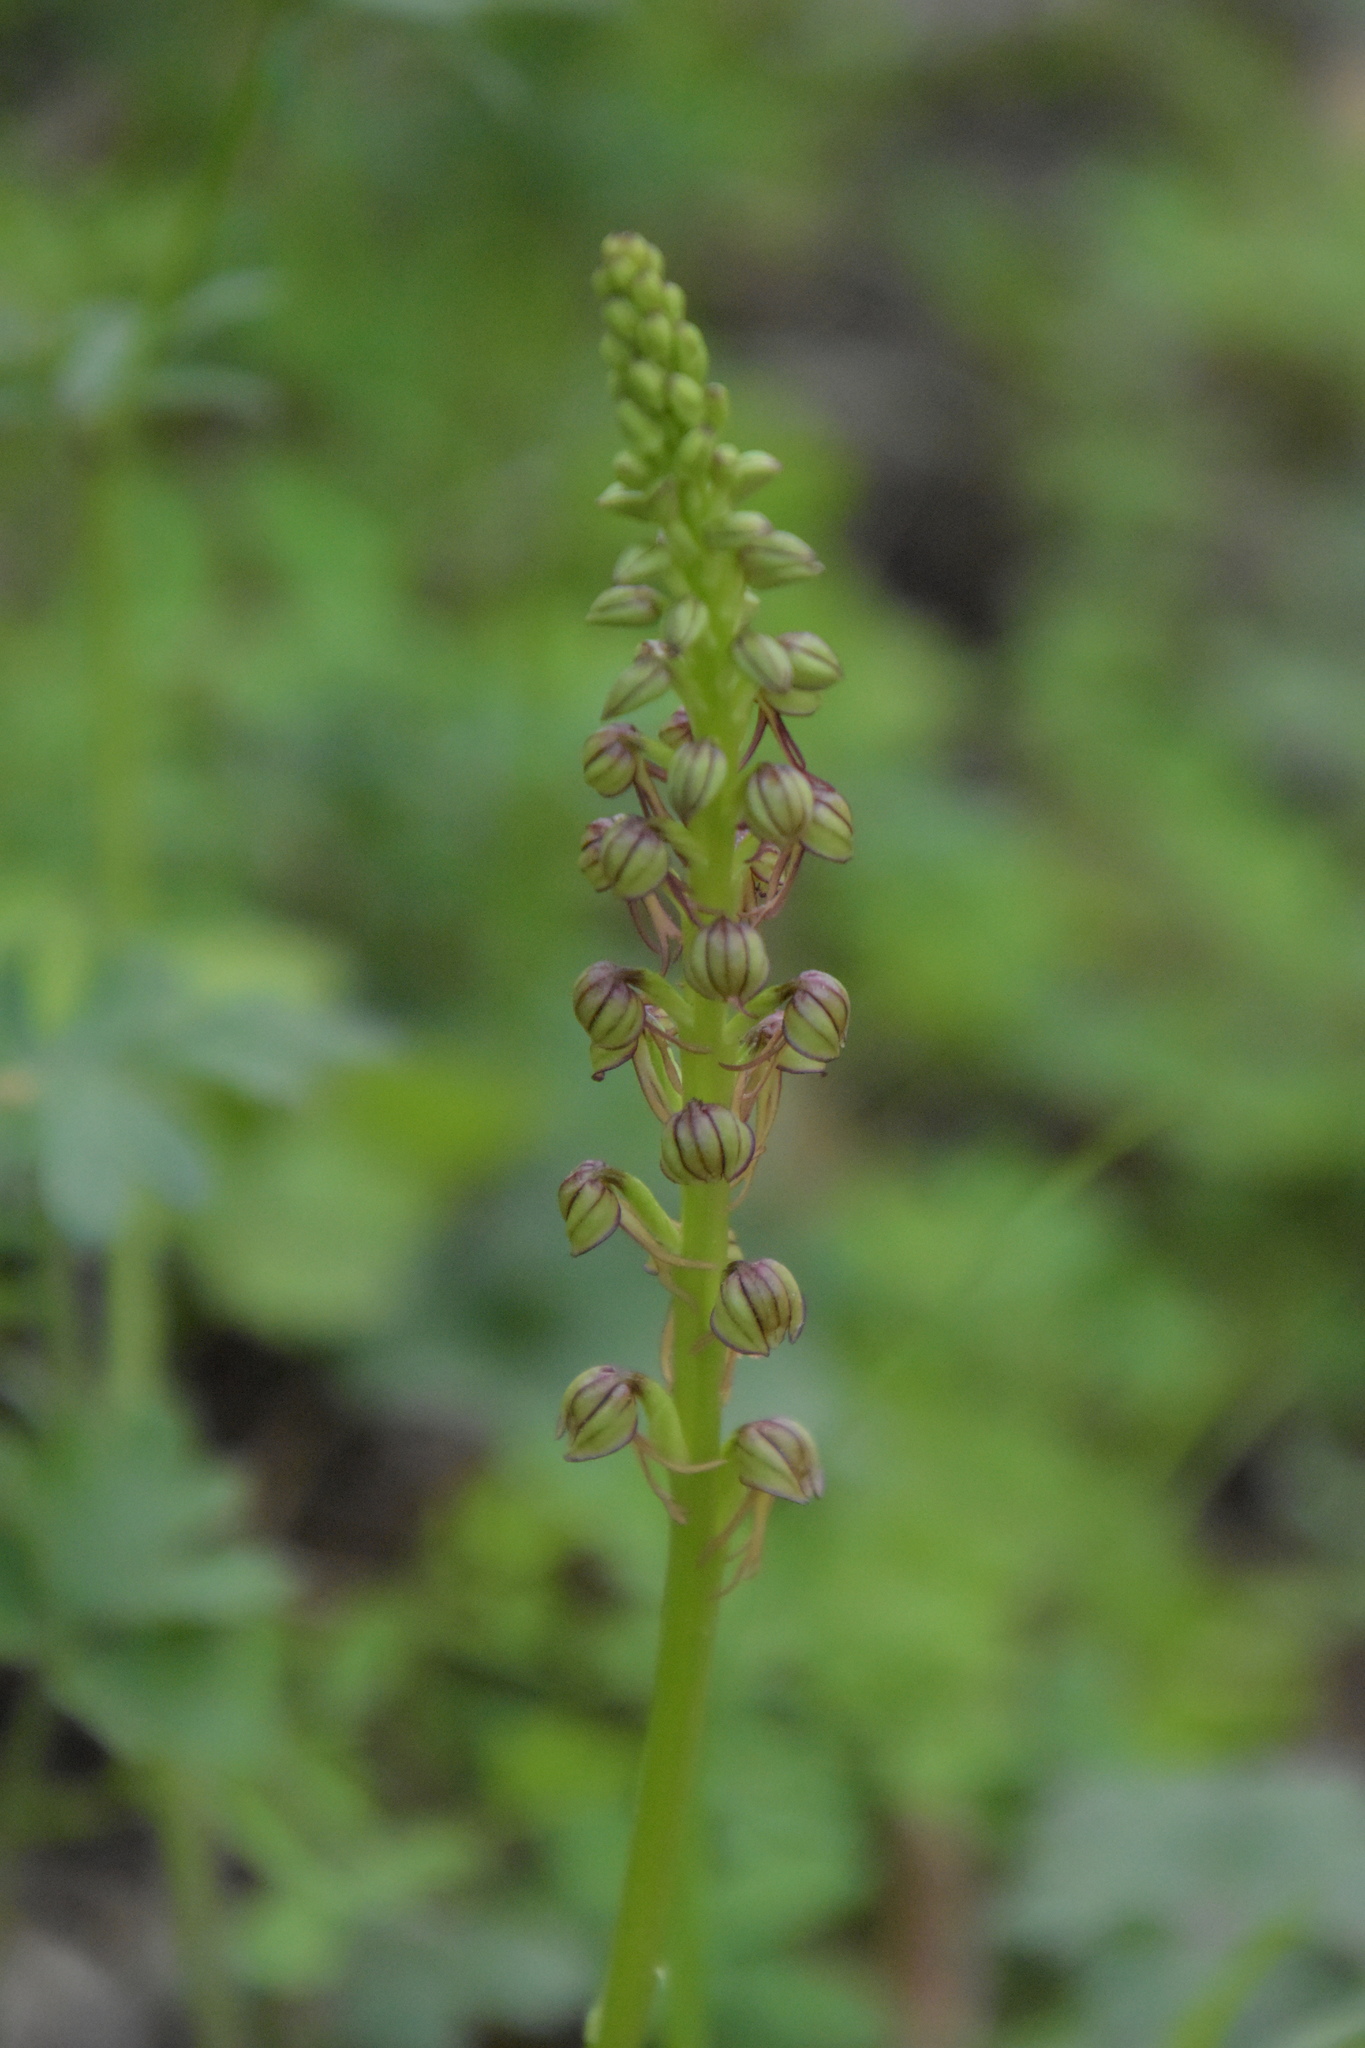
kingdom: Plantae
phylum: Tracheophyta
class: Liliopsida
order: Asparagales
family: Orchidaceae
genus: Orchis
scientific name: Orchis anthropophora
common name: Man orchid
